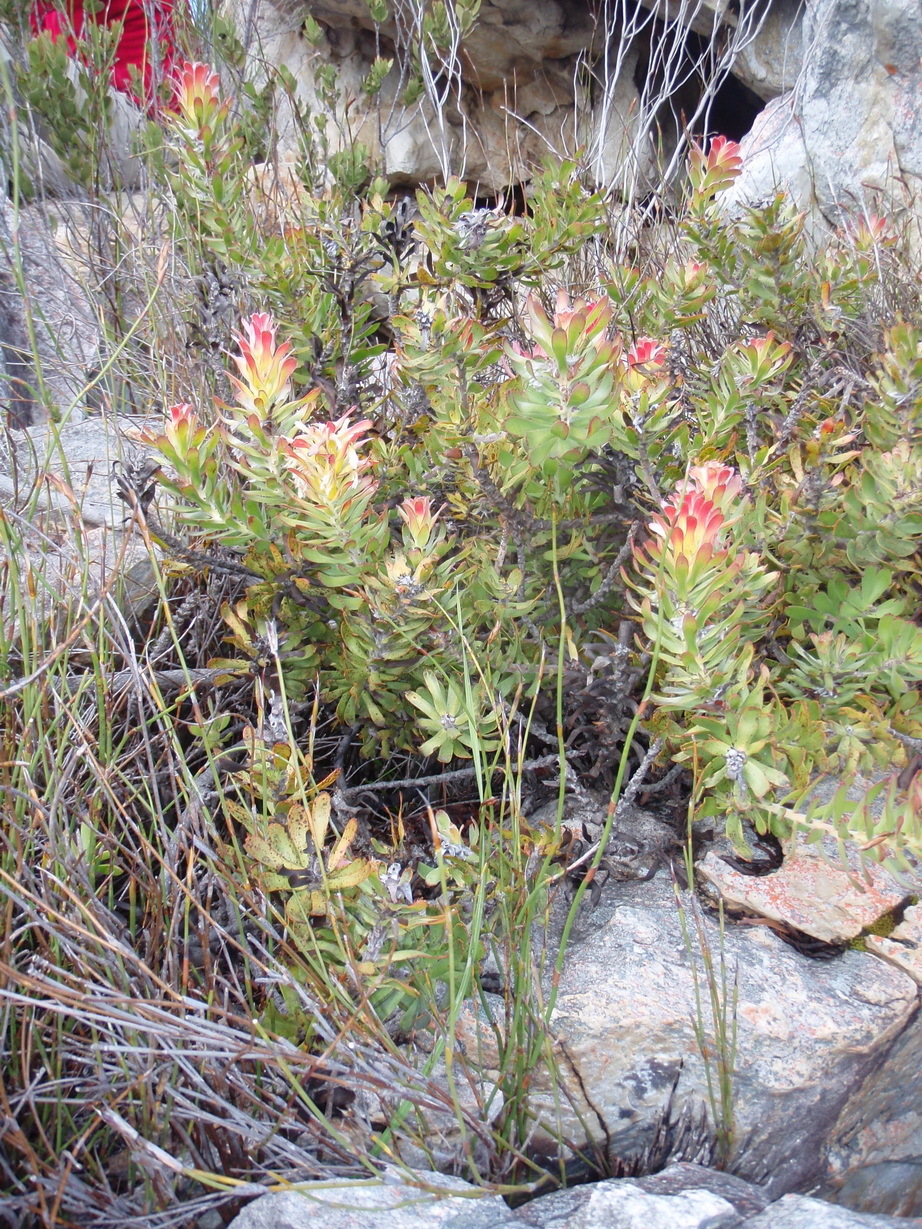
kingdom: Plantae
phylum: Tracheophyta
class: Magnoliopsida
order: Proteales
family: Proteaceae
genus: Mimetes
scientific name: Mimetes cucullatus
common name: Common pagoda
